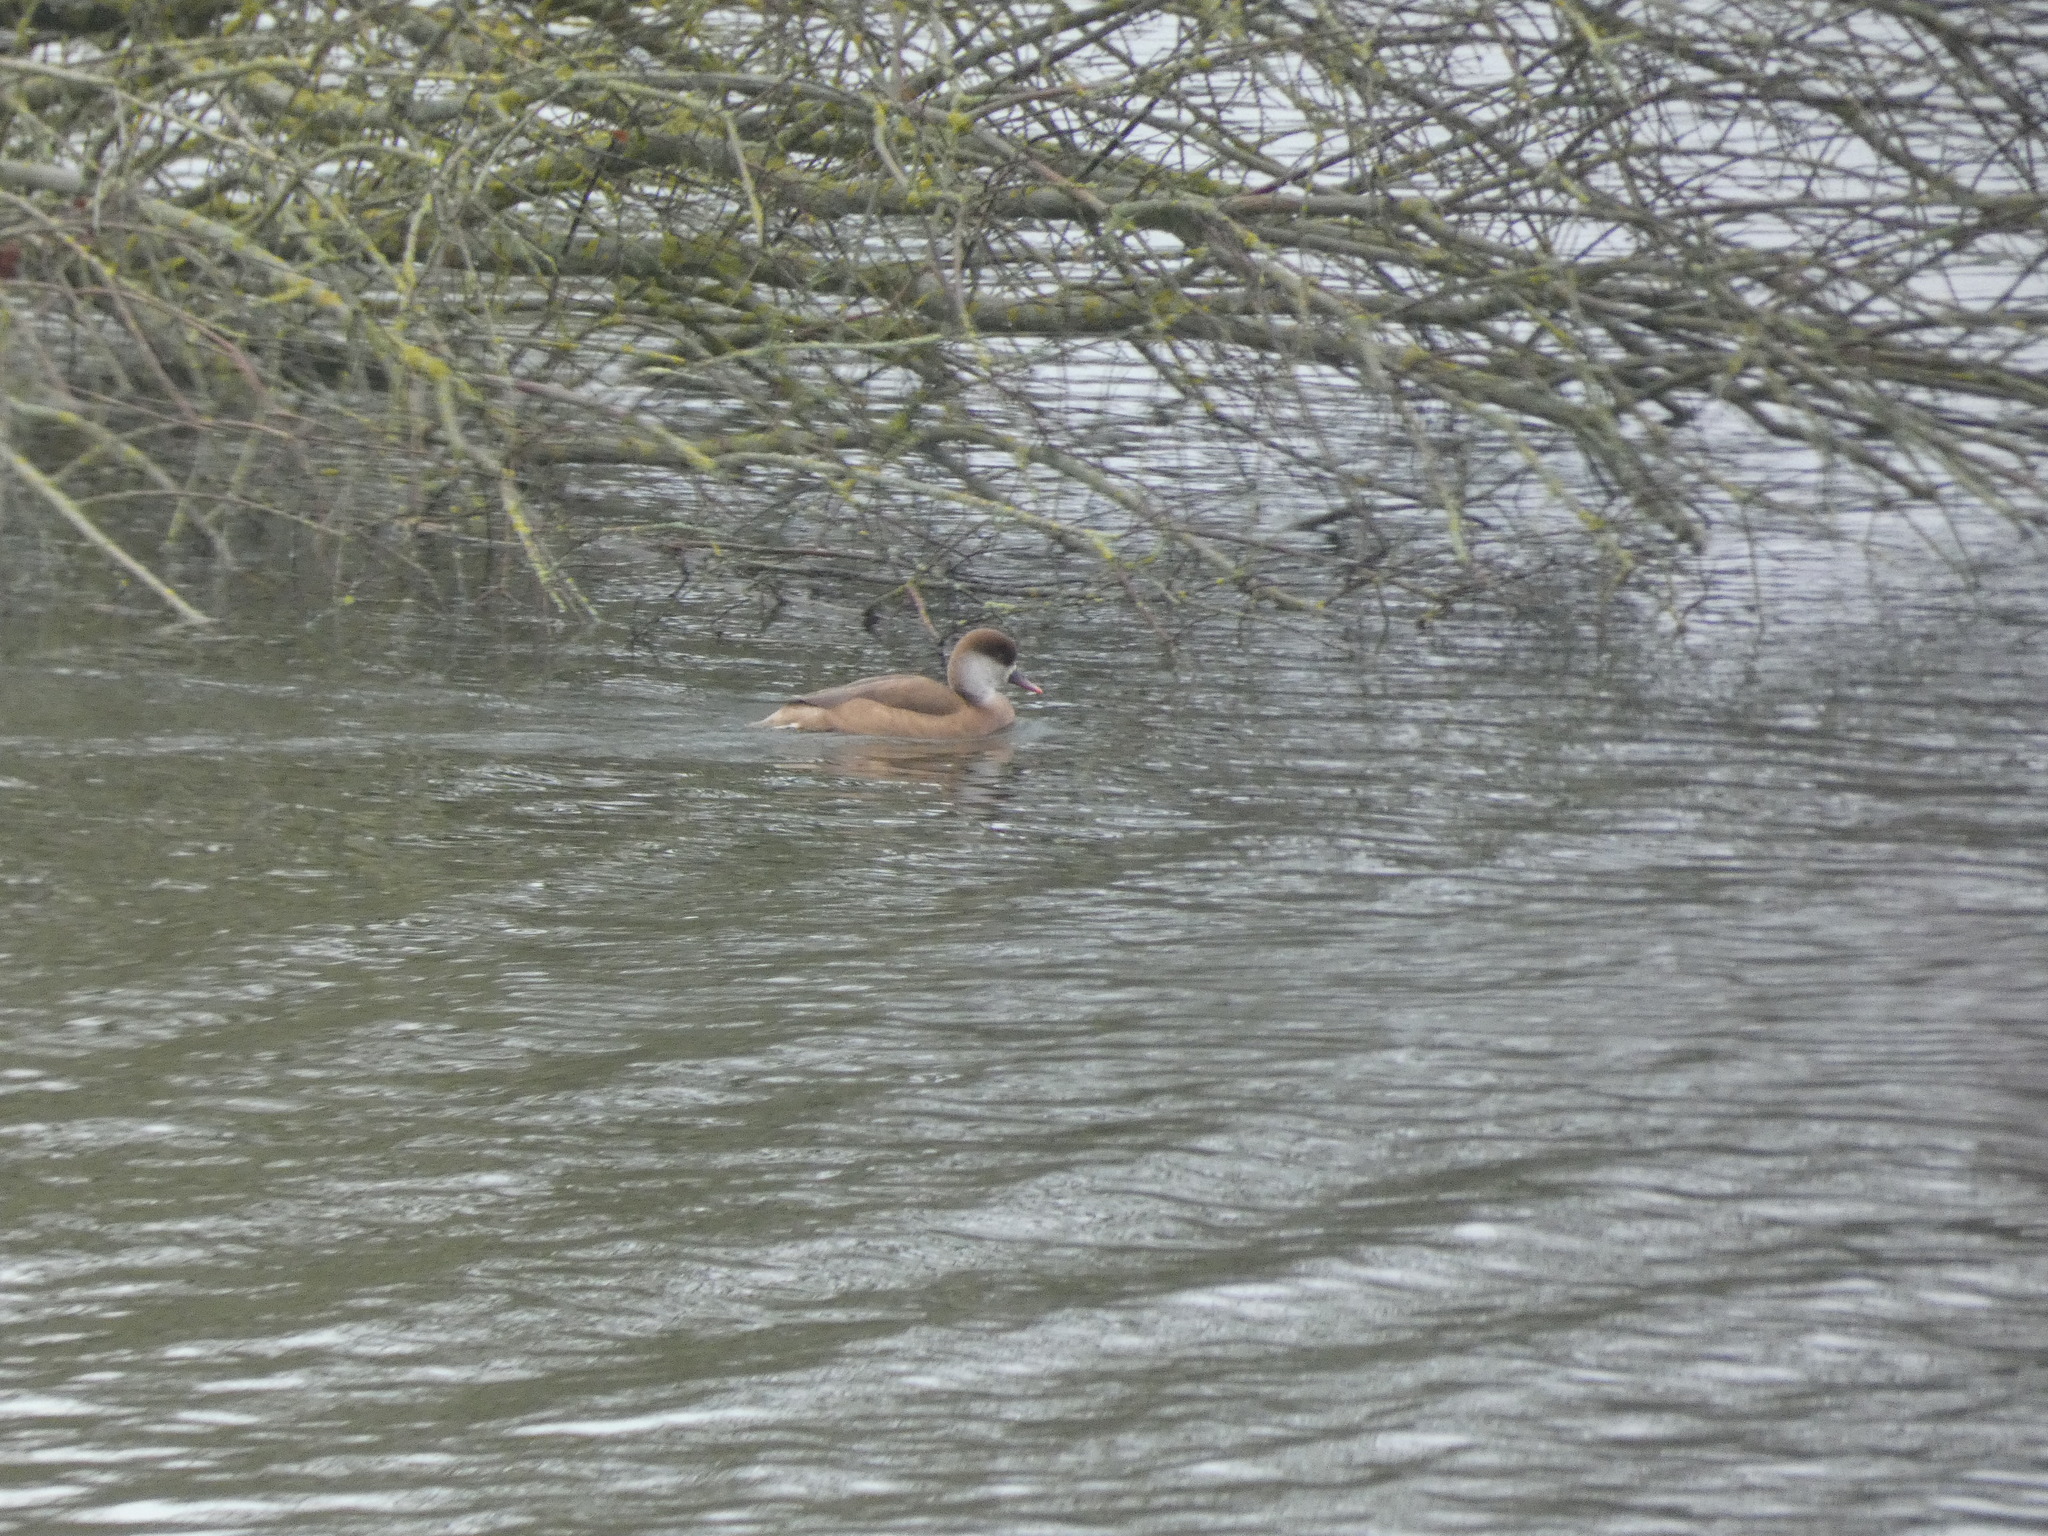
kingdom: Animalia
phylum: Chordata
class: Aves
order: Anseriformes
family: Anatidae
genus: Netta
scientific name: Netta rufina
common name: Red-crested pochard
